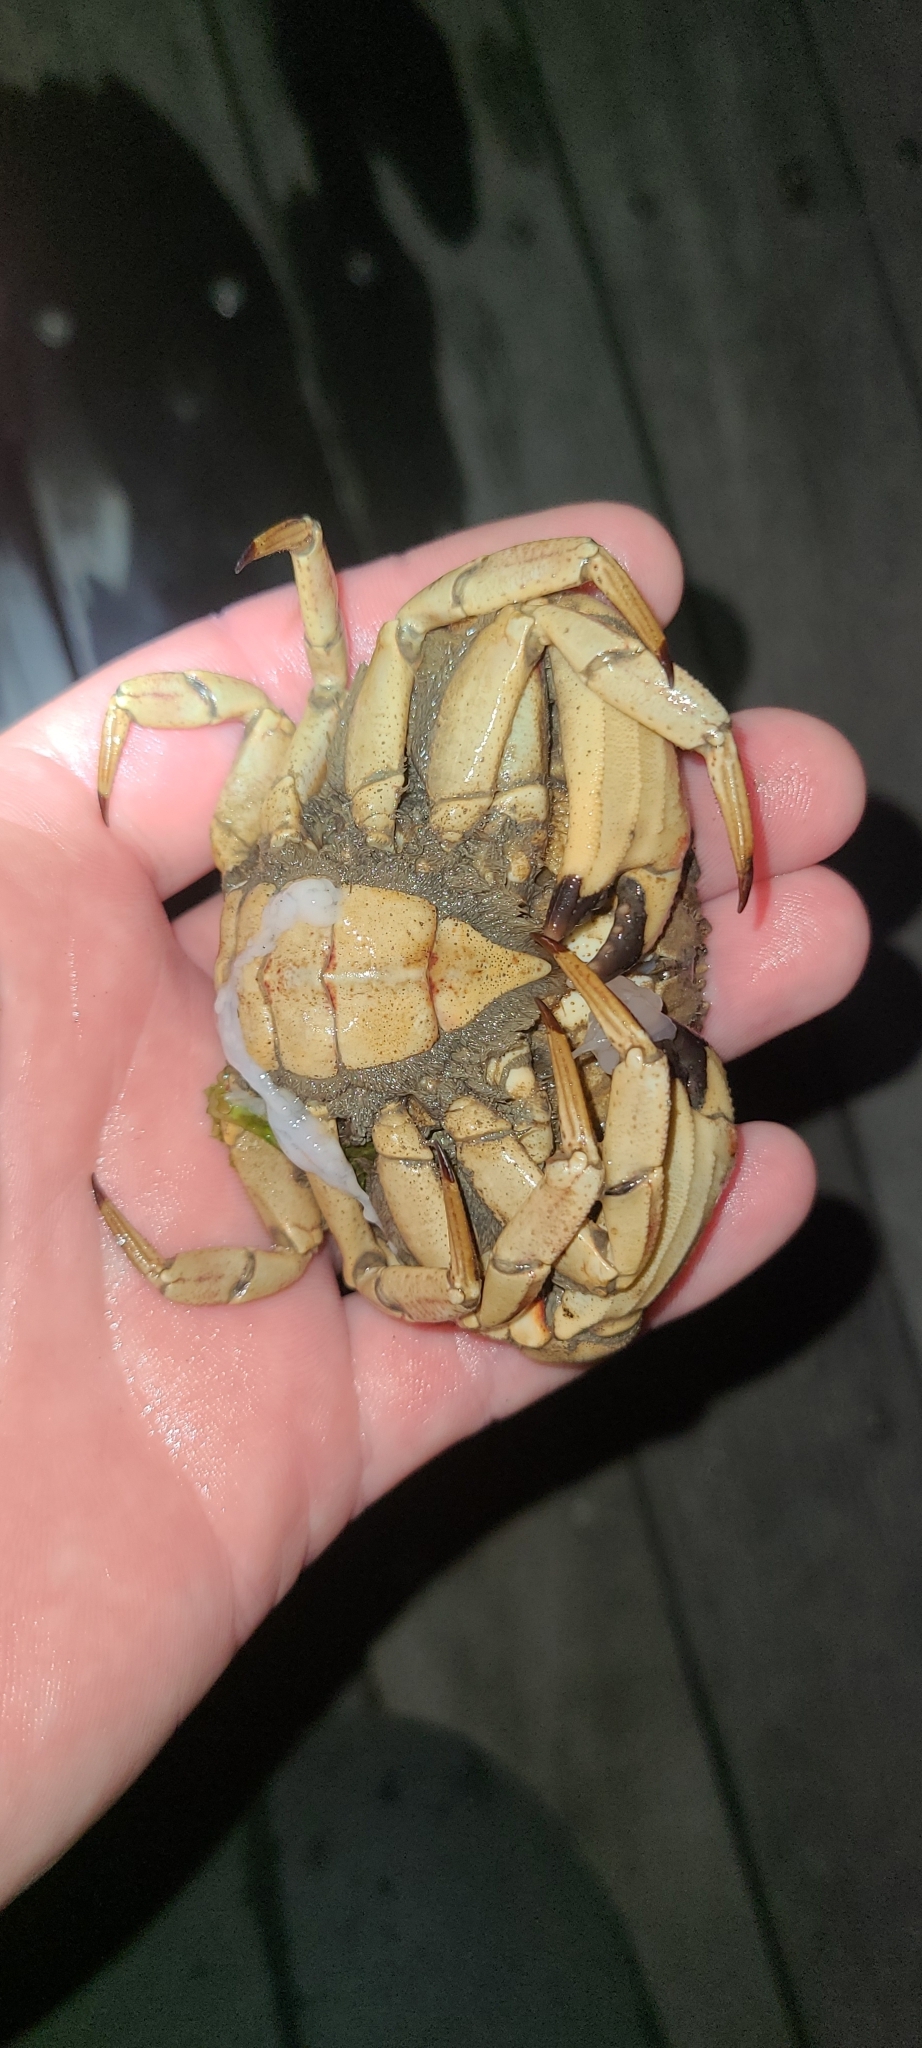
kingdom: Animalia
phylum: Arthropoda
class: Malacostraca
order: Decapoda
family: Cancridae
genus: Metacarcinus
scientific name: Metacarcinus novaezelandiae
